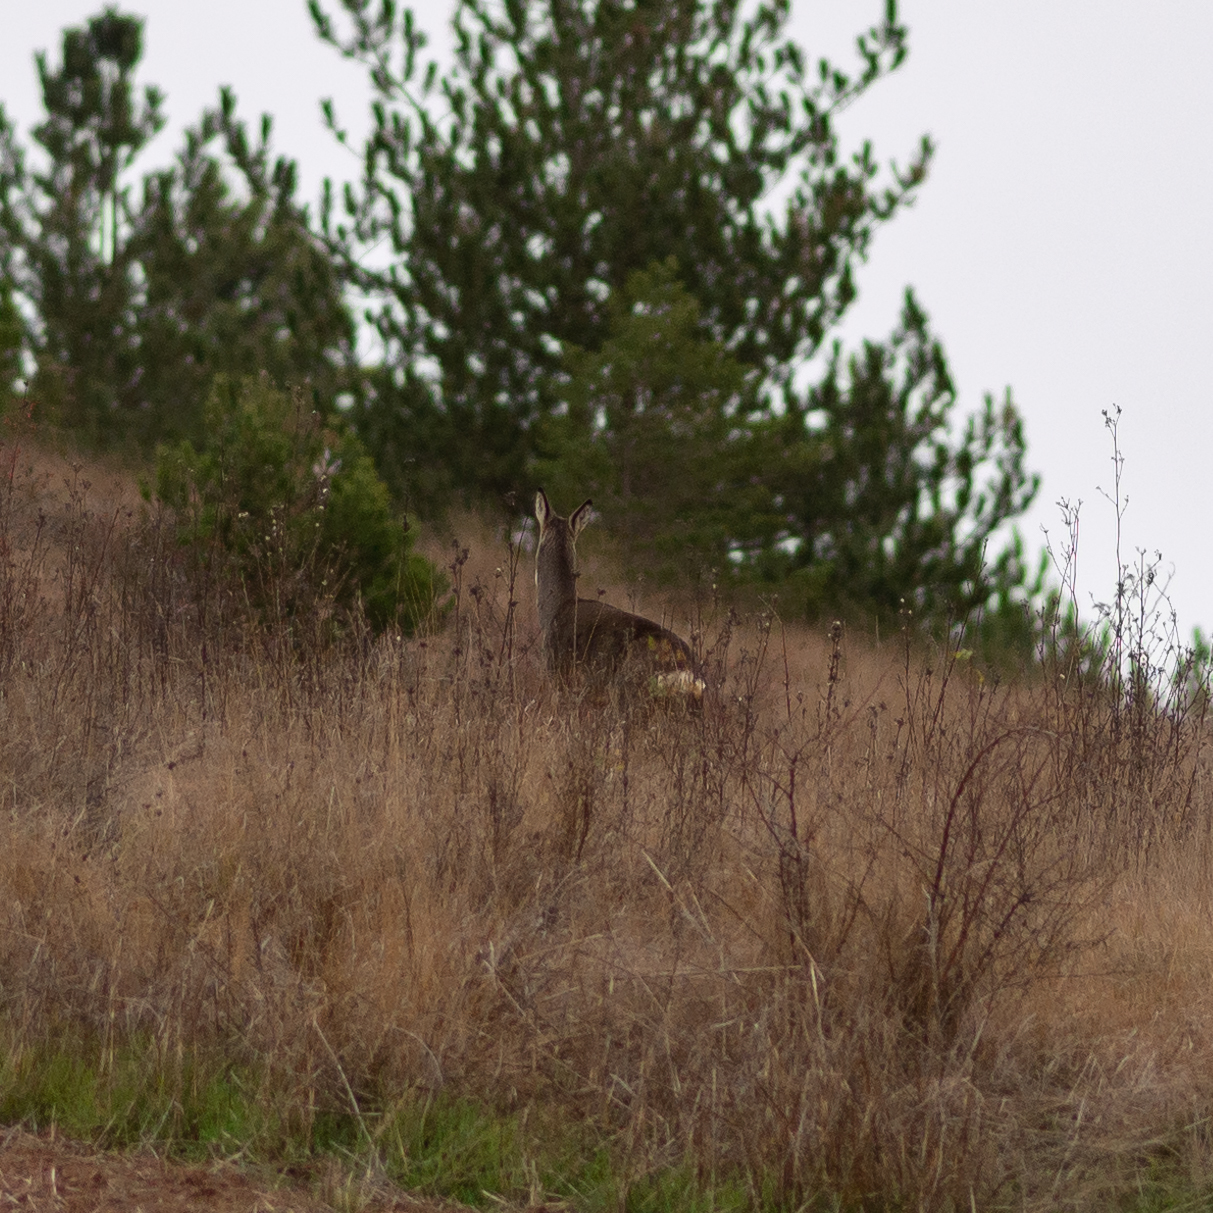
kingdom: Animalia
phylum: Chordata
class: Mammalia
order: Artiodactyla
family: Cervidae
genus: Capreolus
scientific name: Capreolus capreolus
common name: Western roe deer
